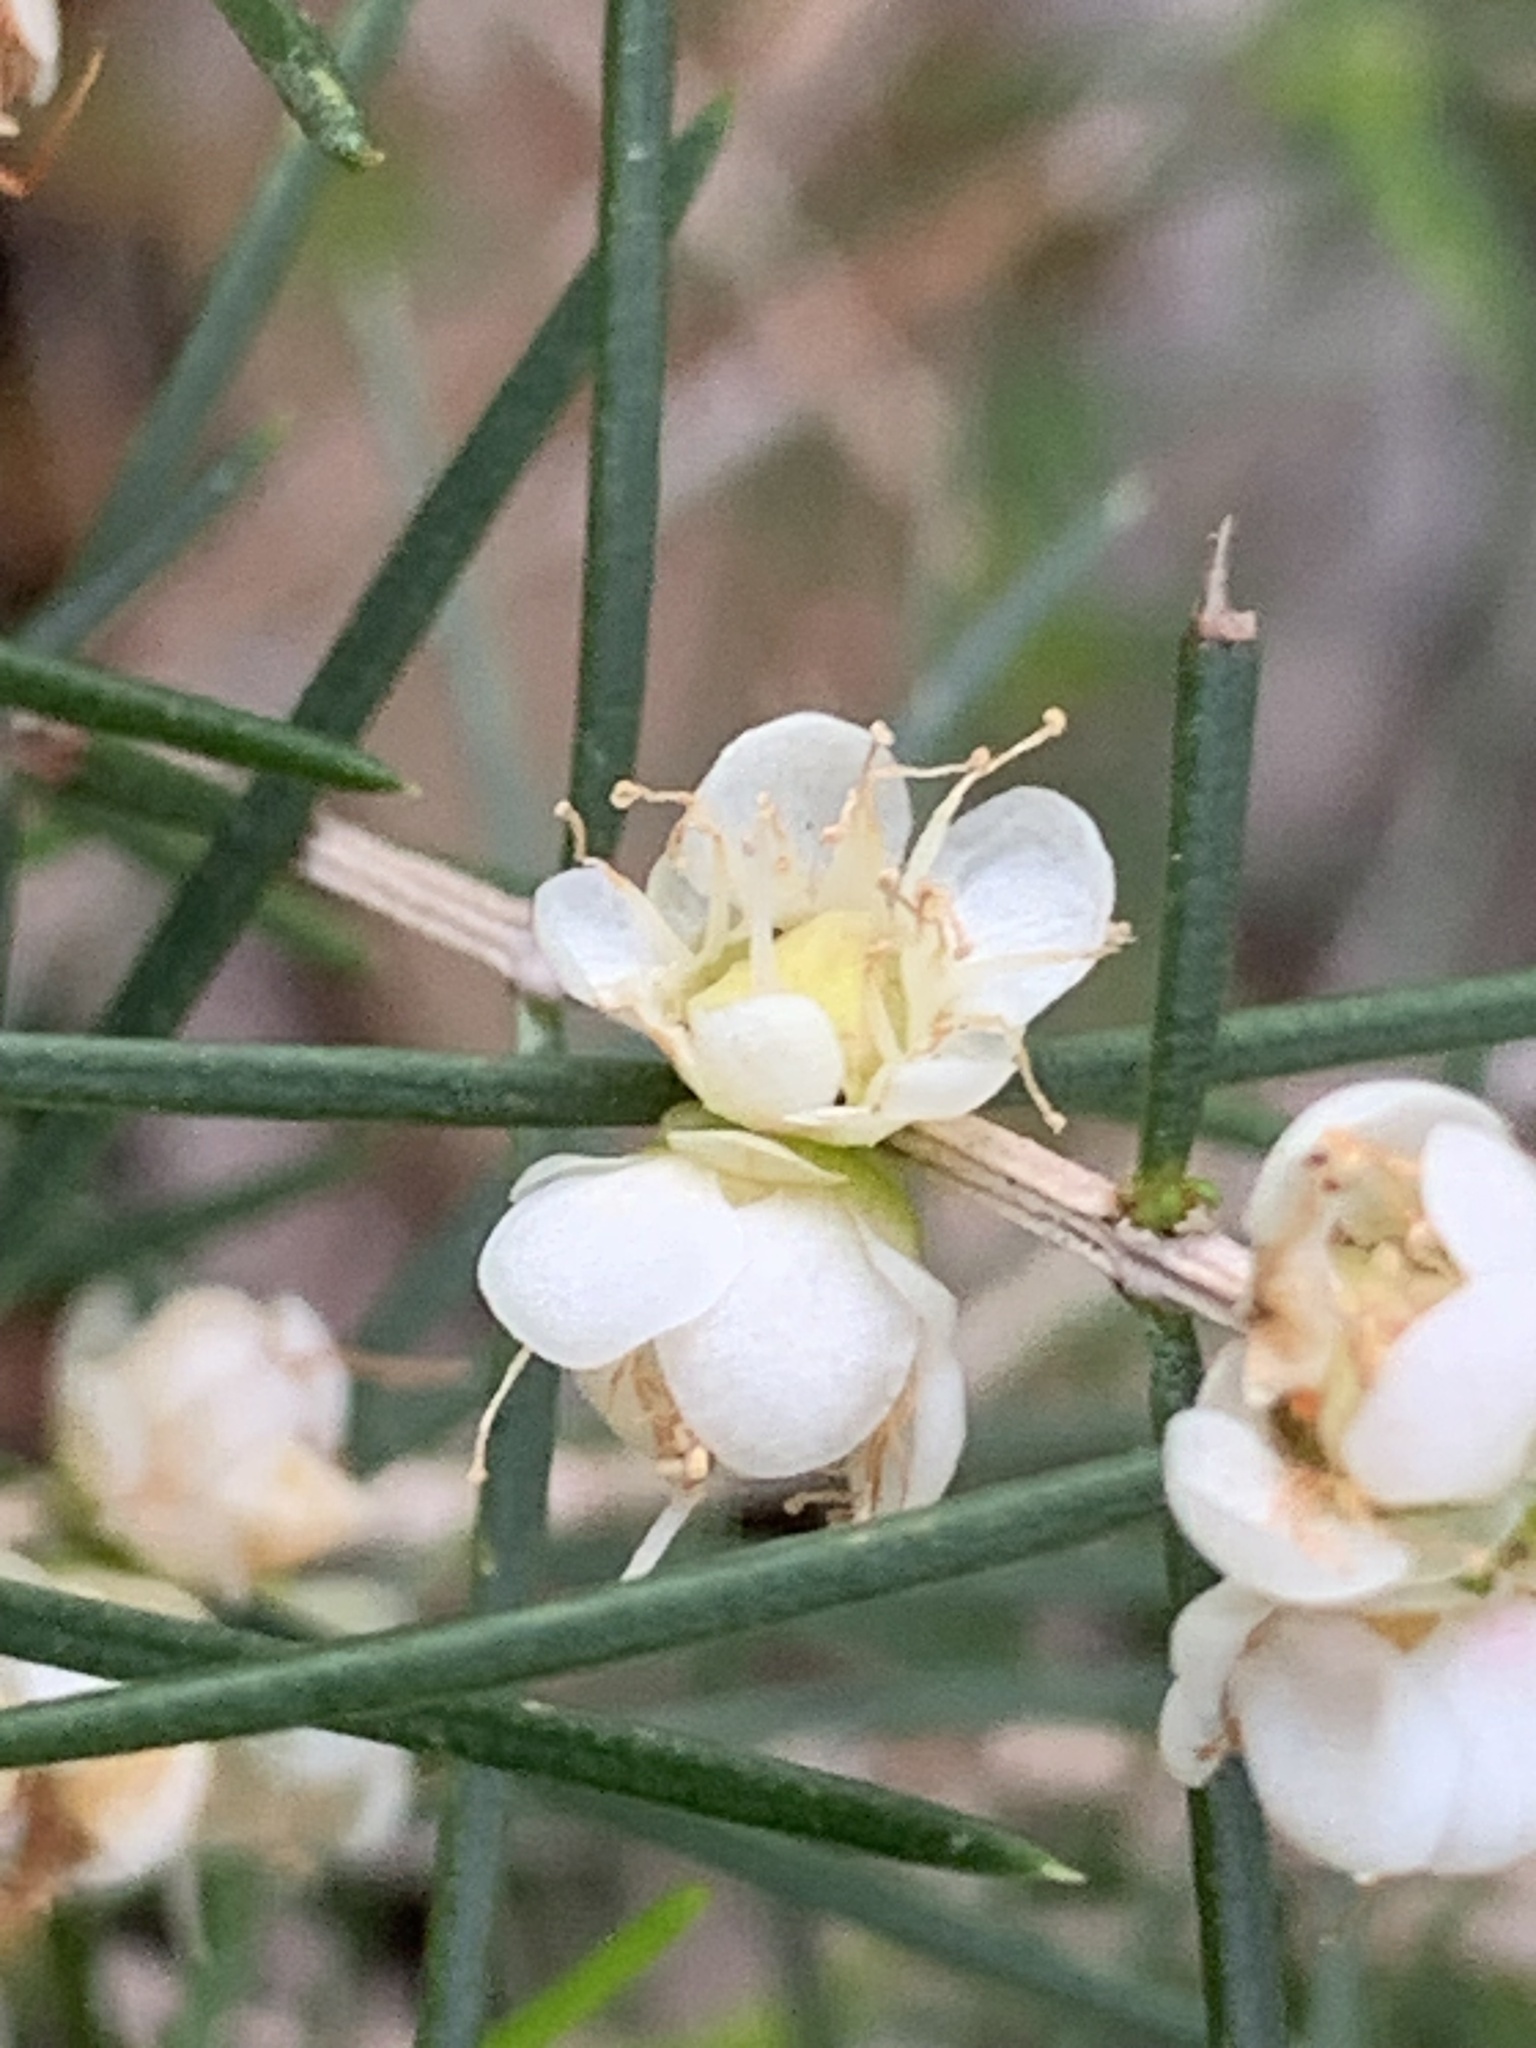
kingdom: Plantae
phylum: Tracheophyta
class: Magnoliopsida
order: Myrtales
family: Myrtaceae
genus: Hypocalymma
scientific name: Hypocalymma angustifolium
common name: White myrtle
